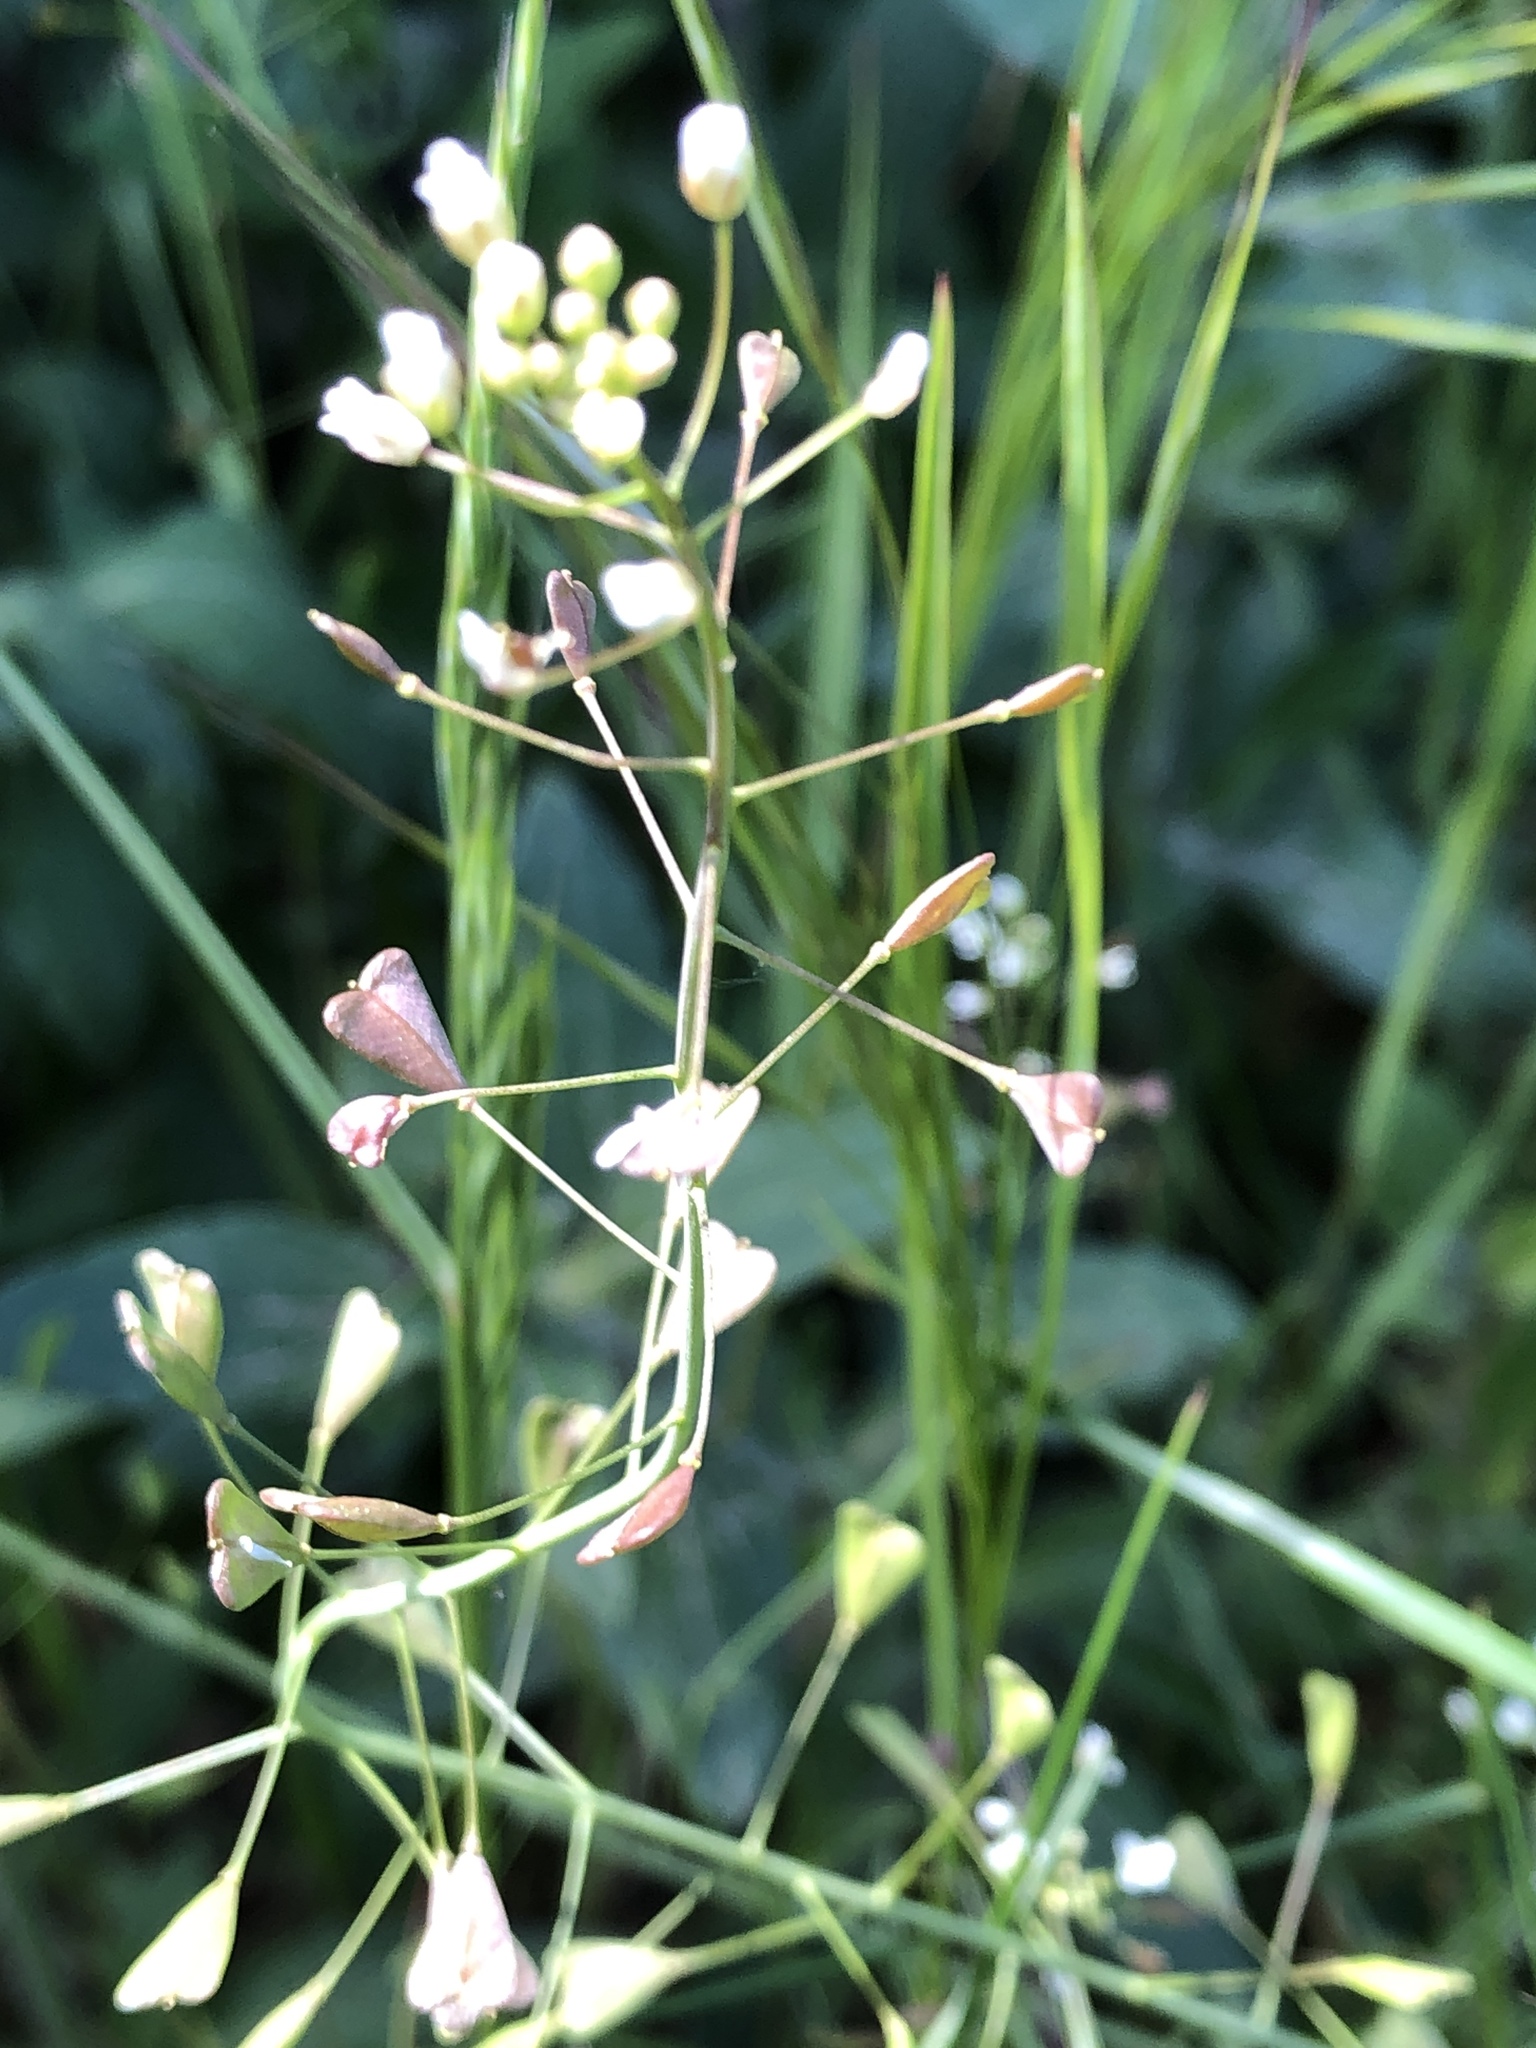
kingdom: Plantae
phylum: Tracheophyta
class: Magnoliopsida
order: Brassicales
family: Brassicaceae
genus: Capsella
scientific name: Capsella bursa-pastoris
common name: Shepherd's purse
